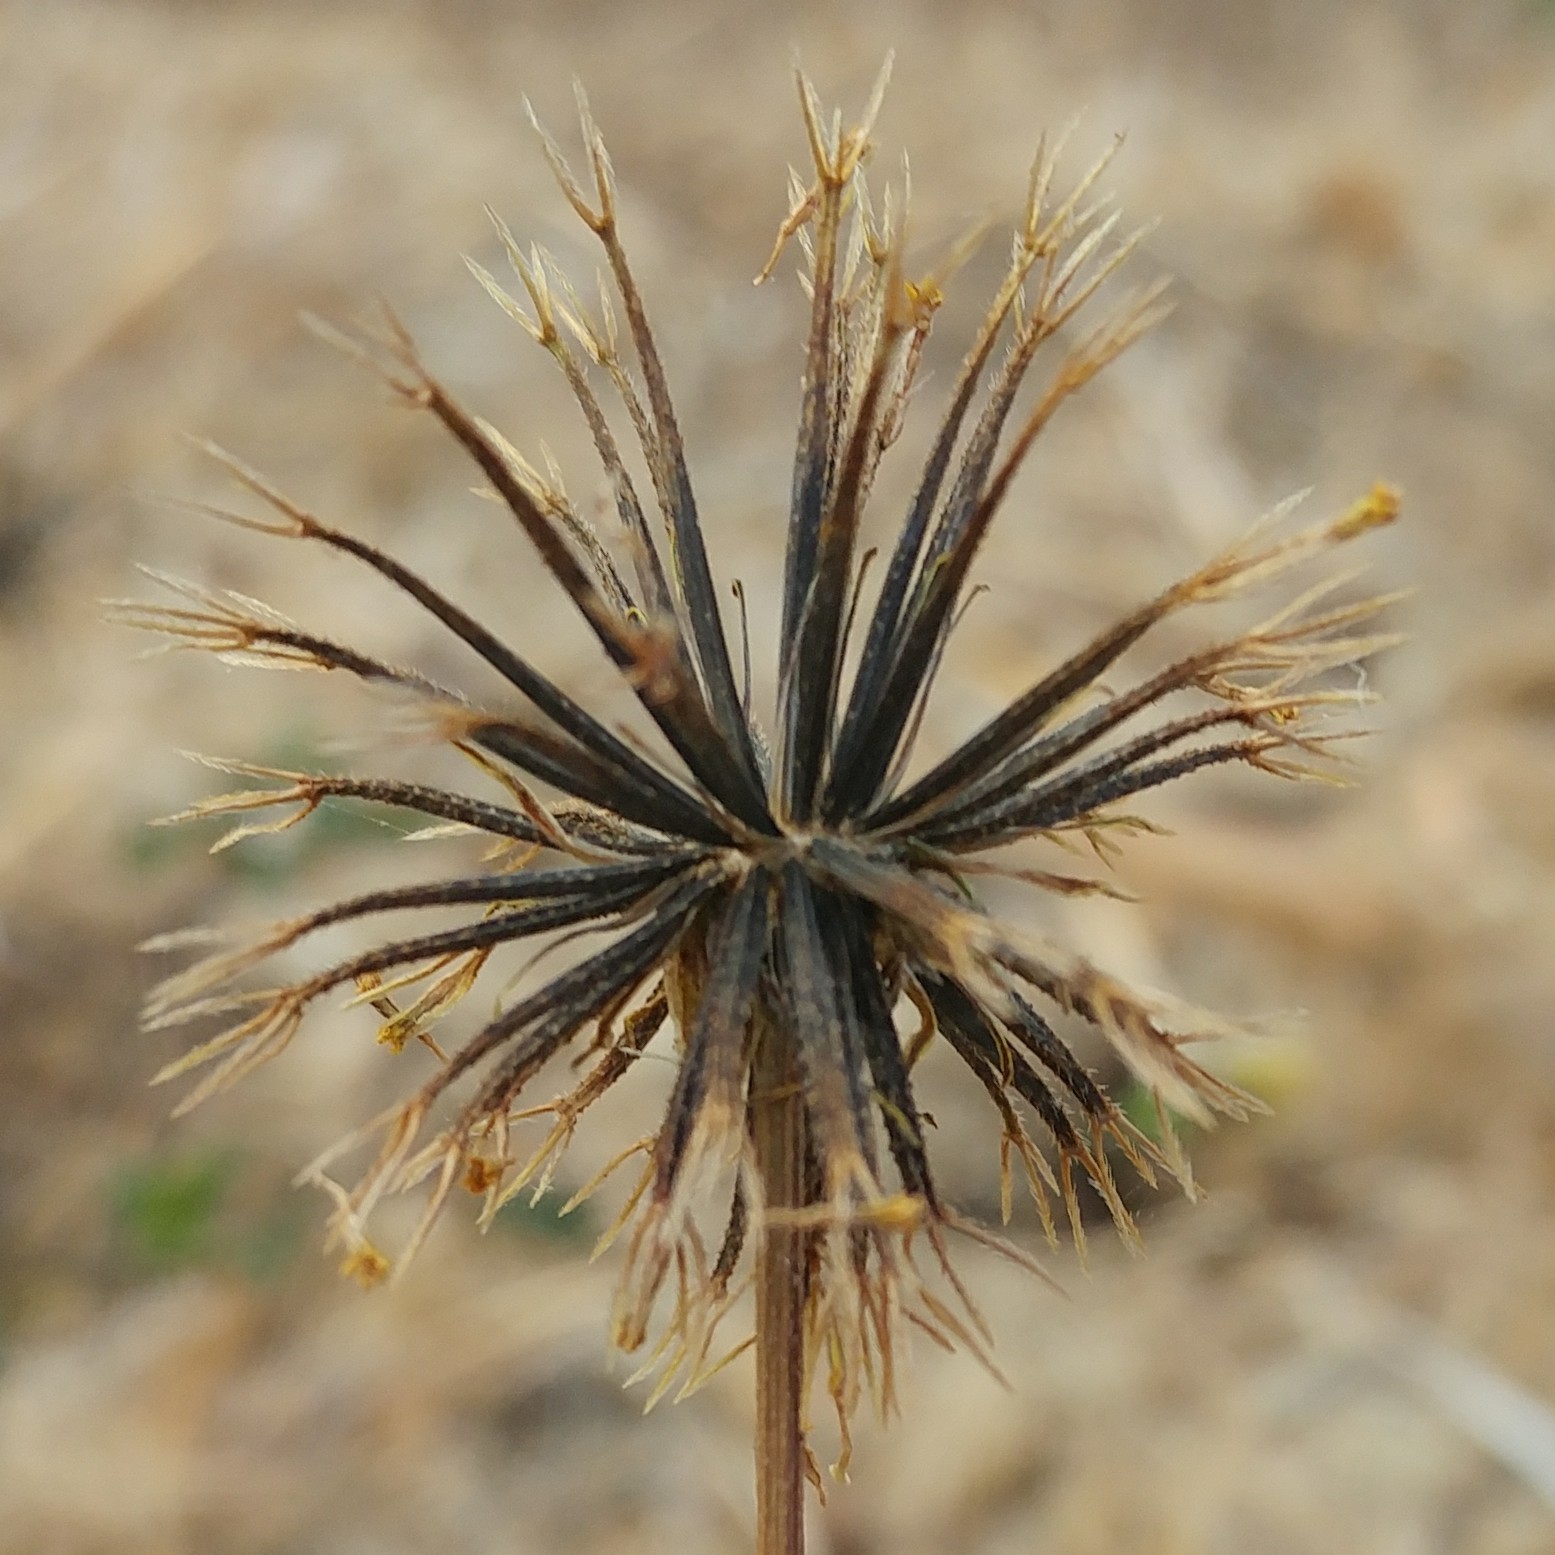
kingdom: Plantae
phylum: Tracheophyta
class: Magnoliopsida
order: Asterales
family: Asteraceae
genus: Bidens
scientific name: Bidens frondosa
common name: Beggarticks
